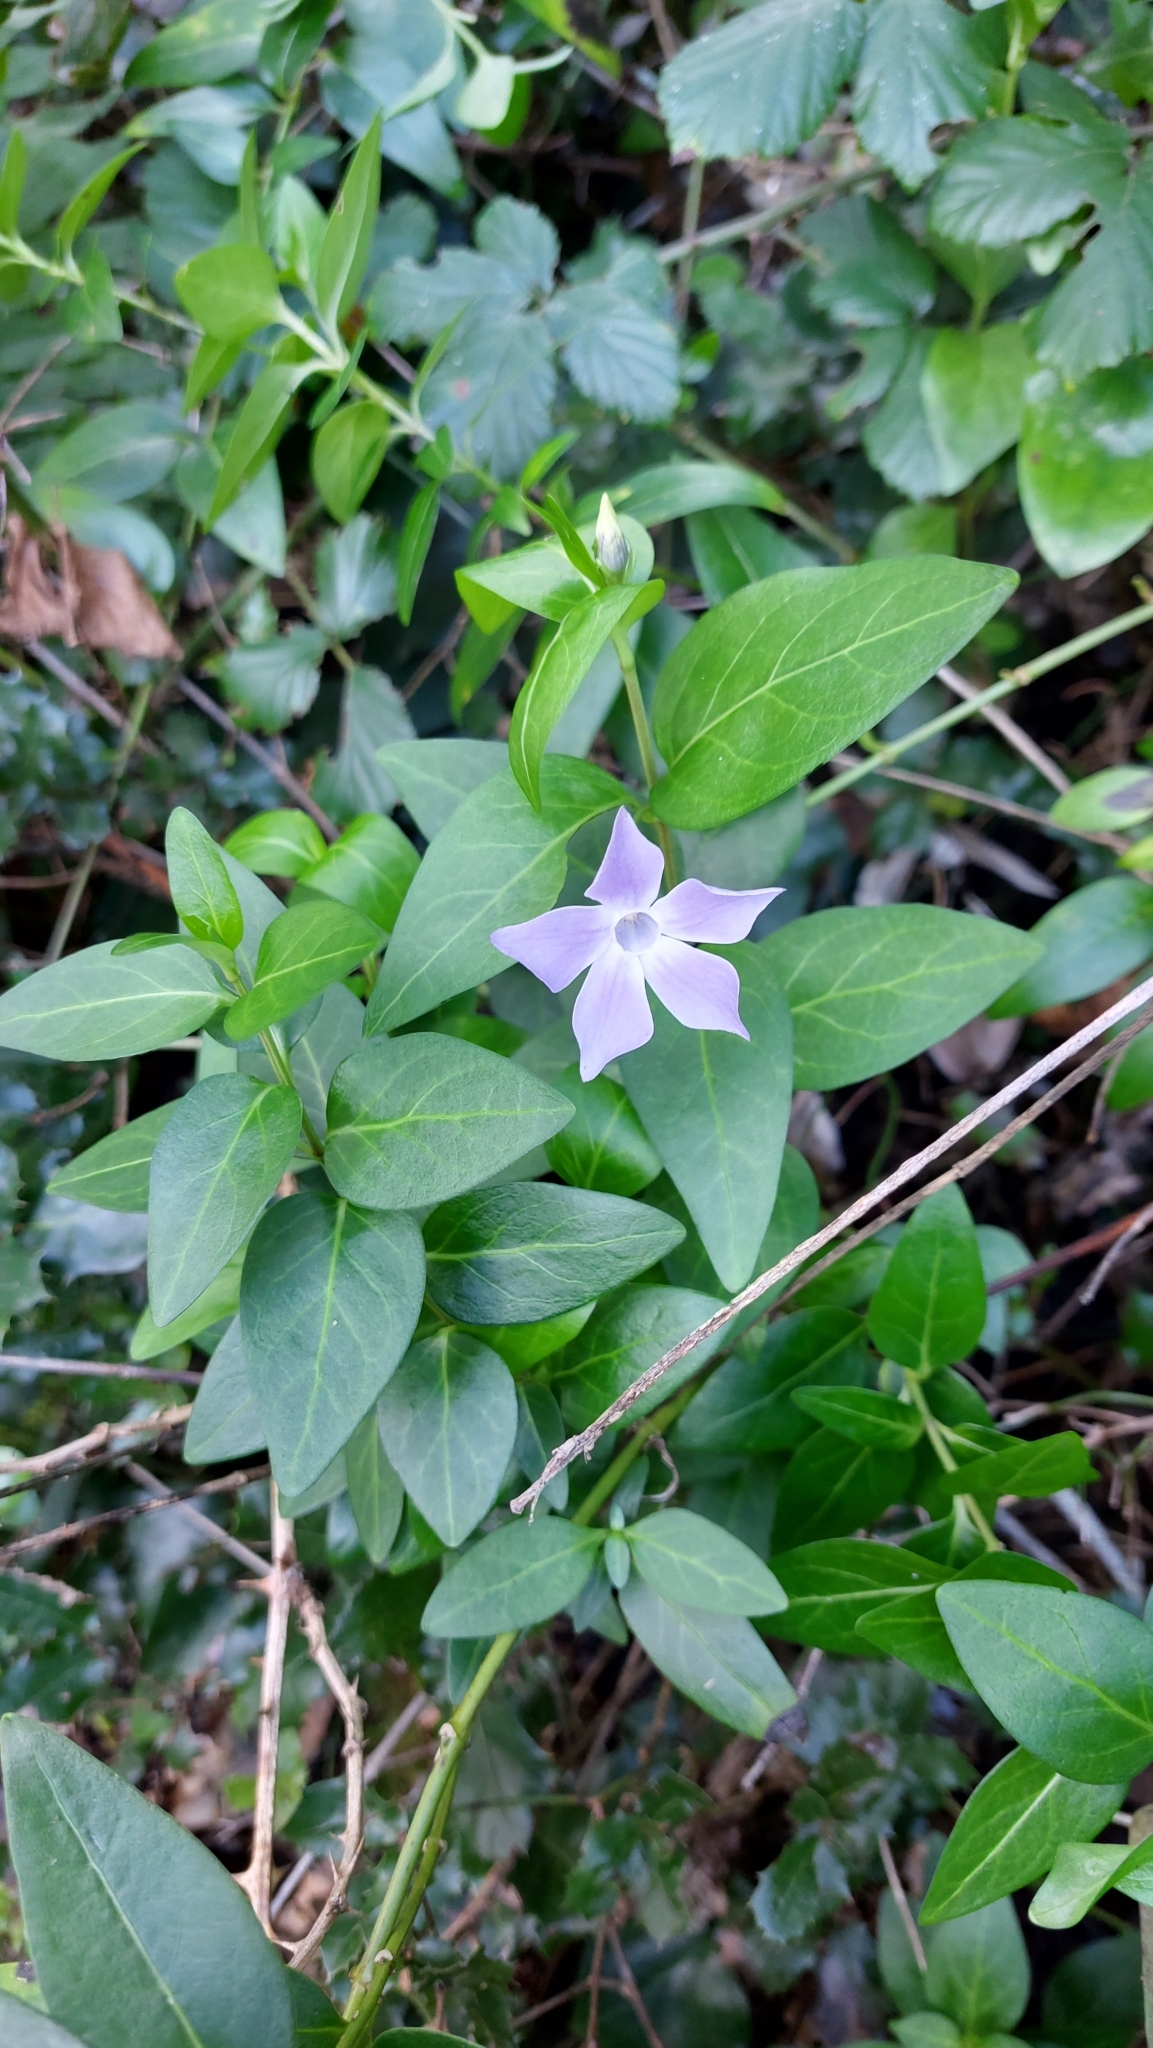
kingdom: Plantae
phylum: Tracheophyta
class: Magnoliopsida
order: Gentianales
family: Apocynaceae
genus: Vinca
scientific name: Vinca difformis
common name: Intermediate periwinkle
